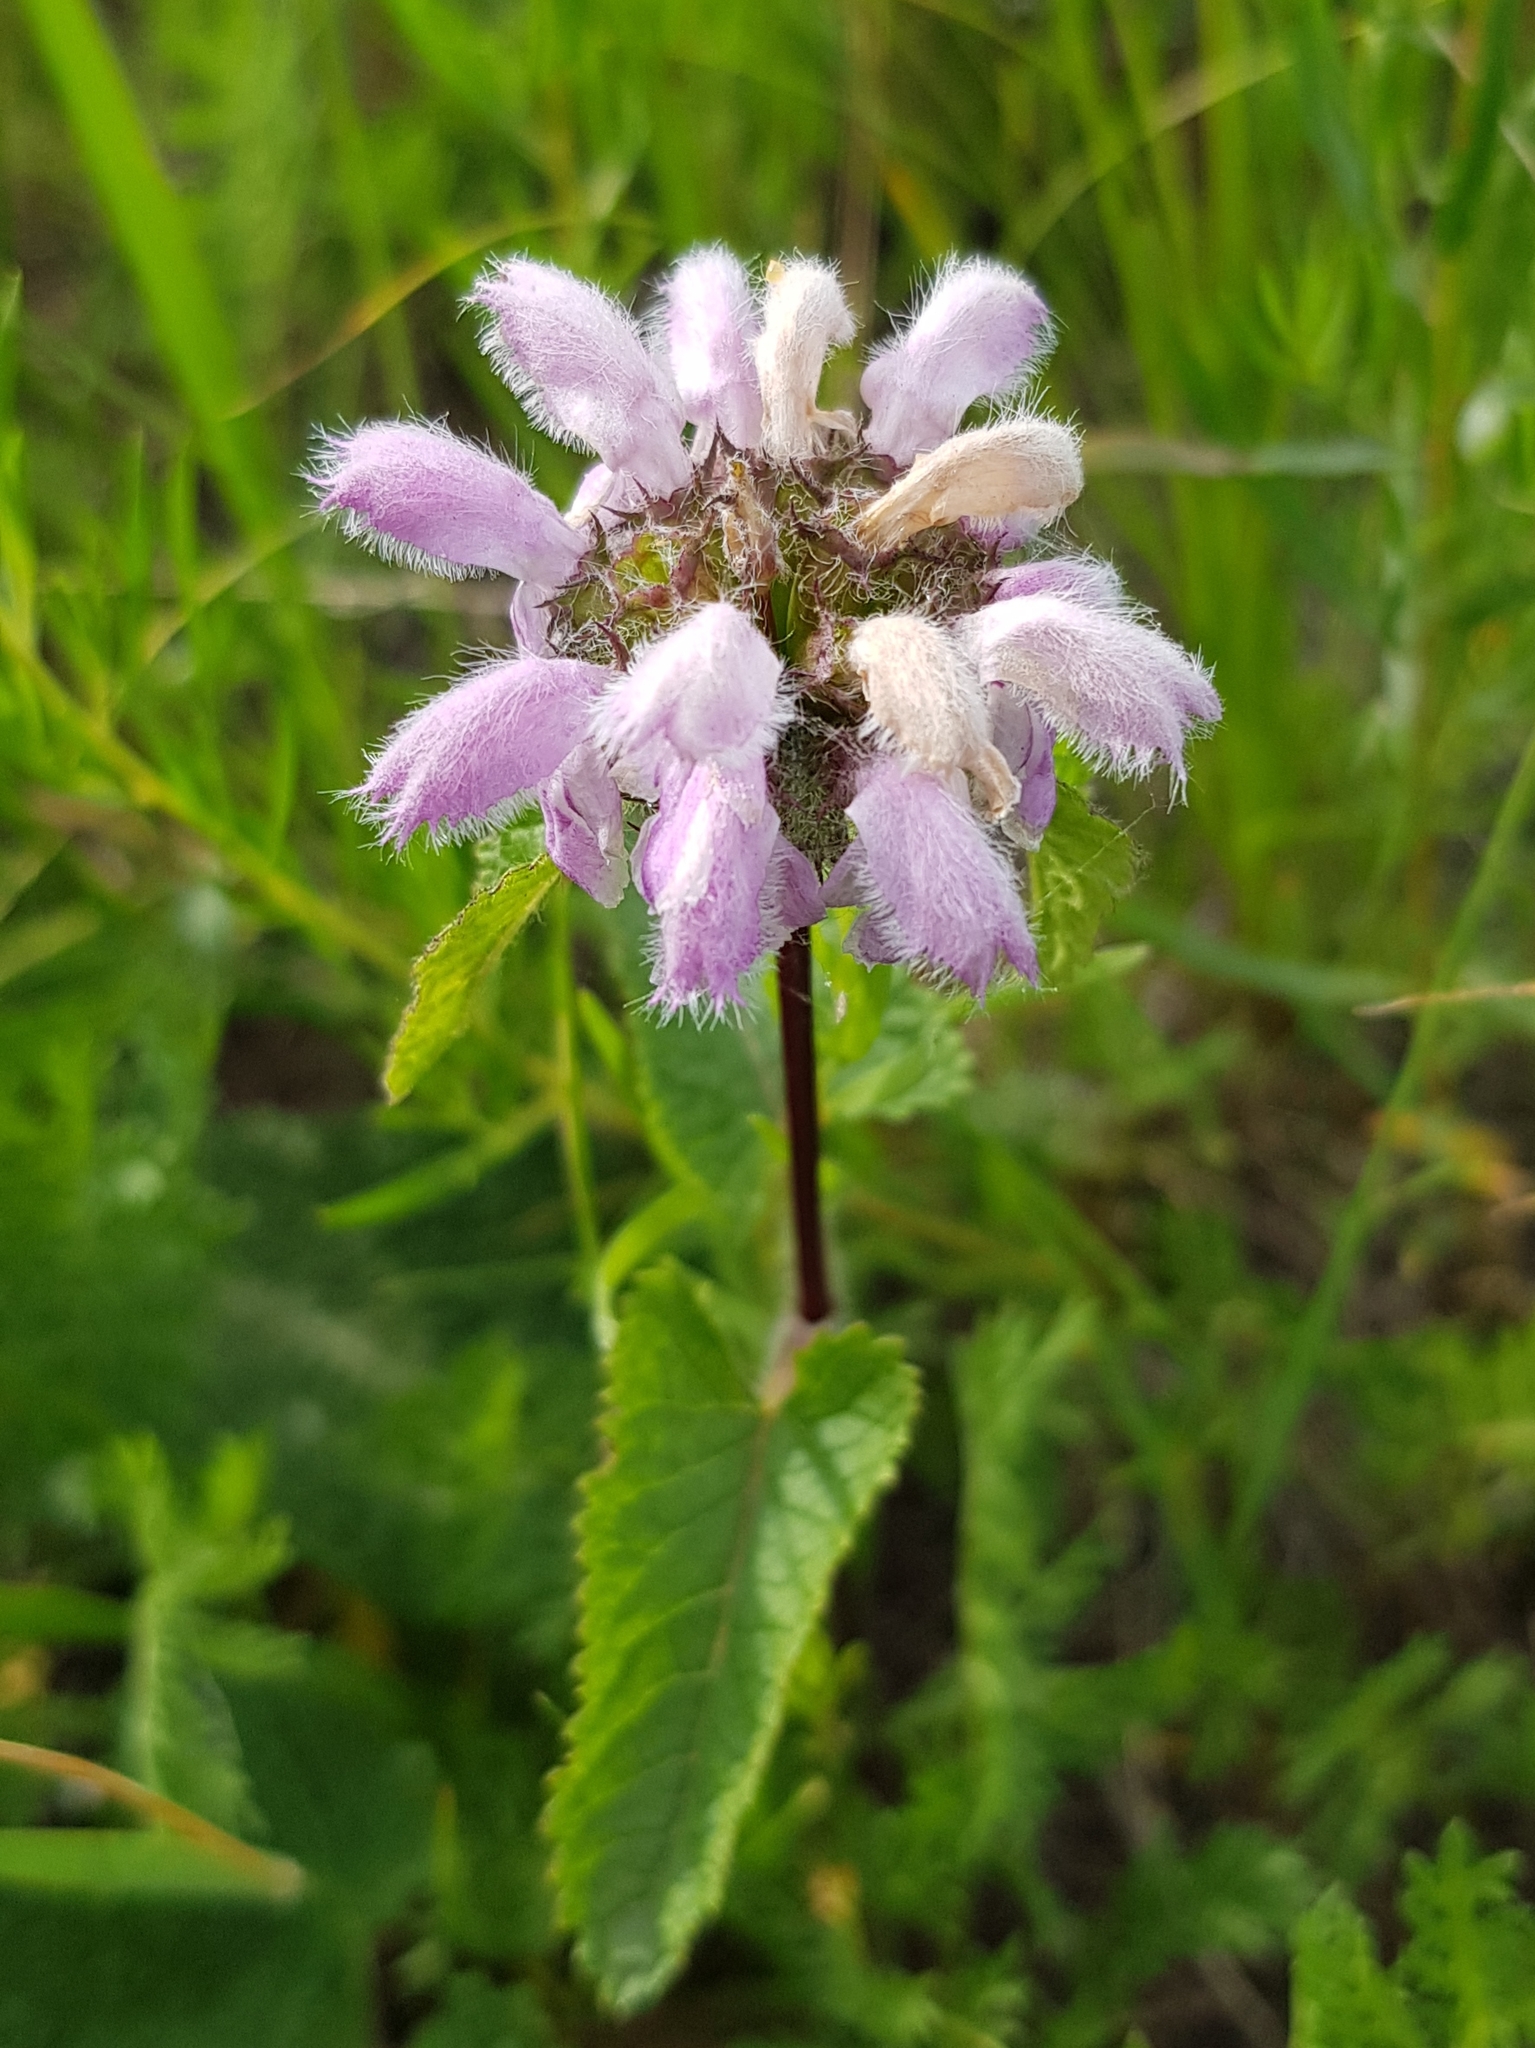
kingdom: Plantae
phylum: Tracheophyta
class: Magnoliopsida
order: Lamiales
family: Lamiaceae
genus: Phlomoides
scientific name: Phlomoides tuberosa
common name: Tuberous jerusalem sage
